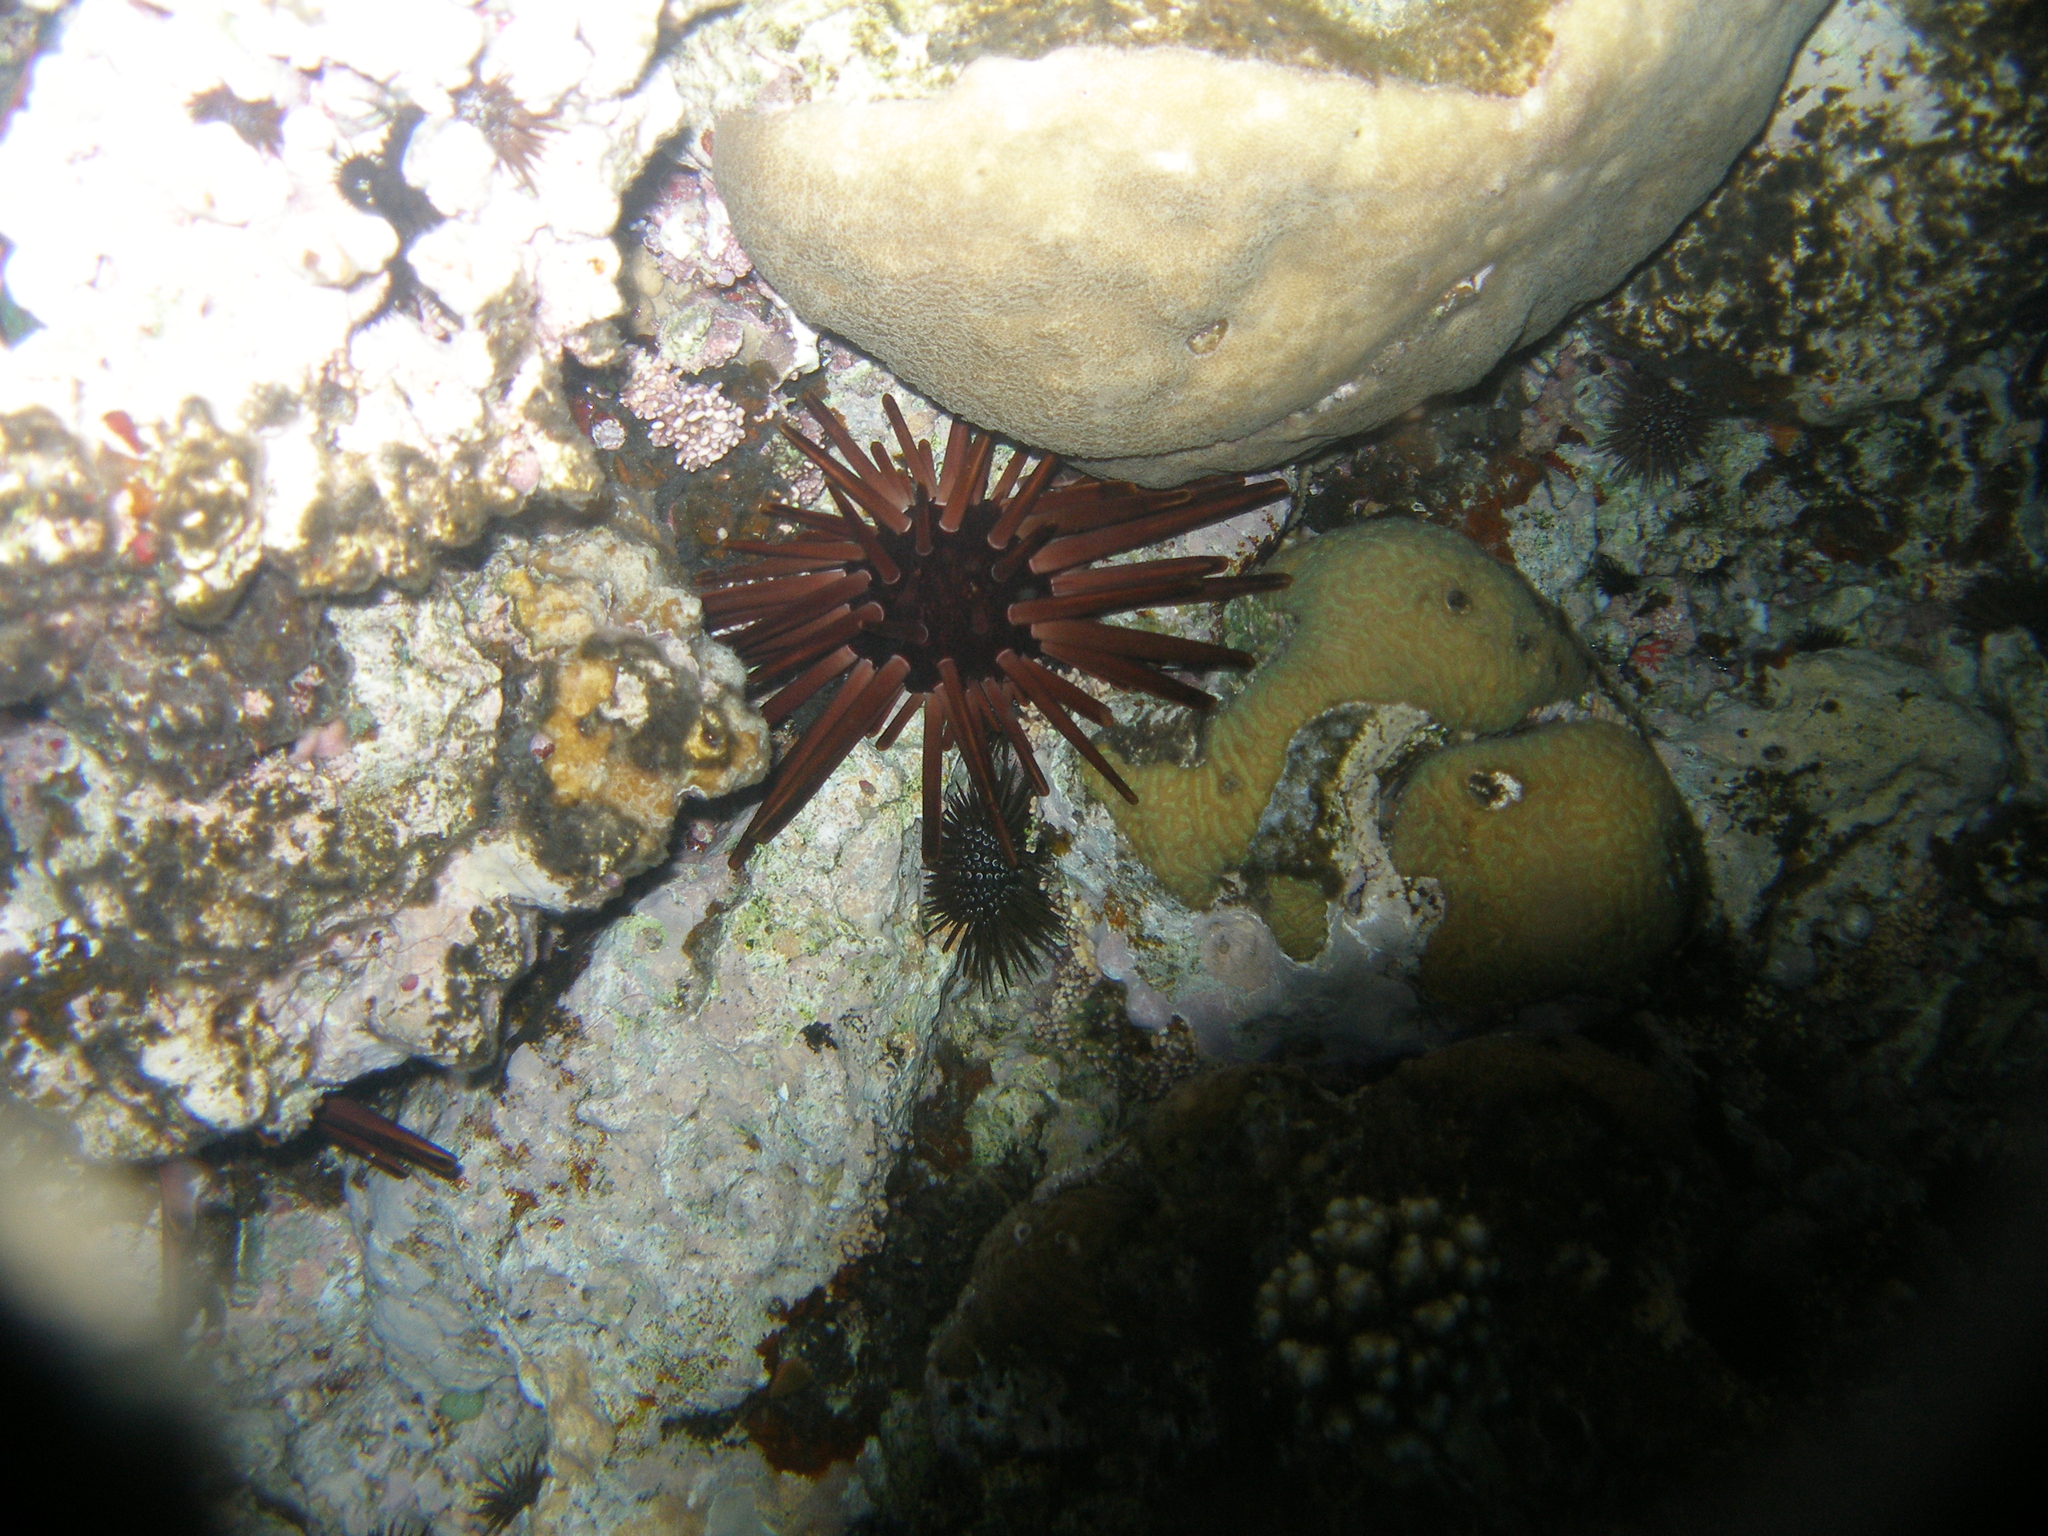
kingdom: Animalia
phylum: Echinodermata
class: Echinoidea
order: Camarodonta
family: Echinometridae
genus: Heterocentrotus
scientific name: Heterocentrotus mamillatus
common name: Slate pencil urchin
